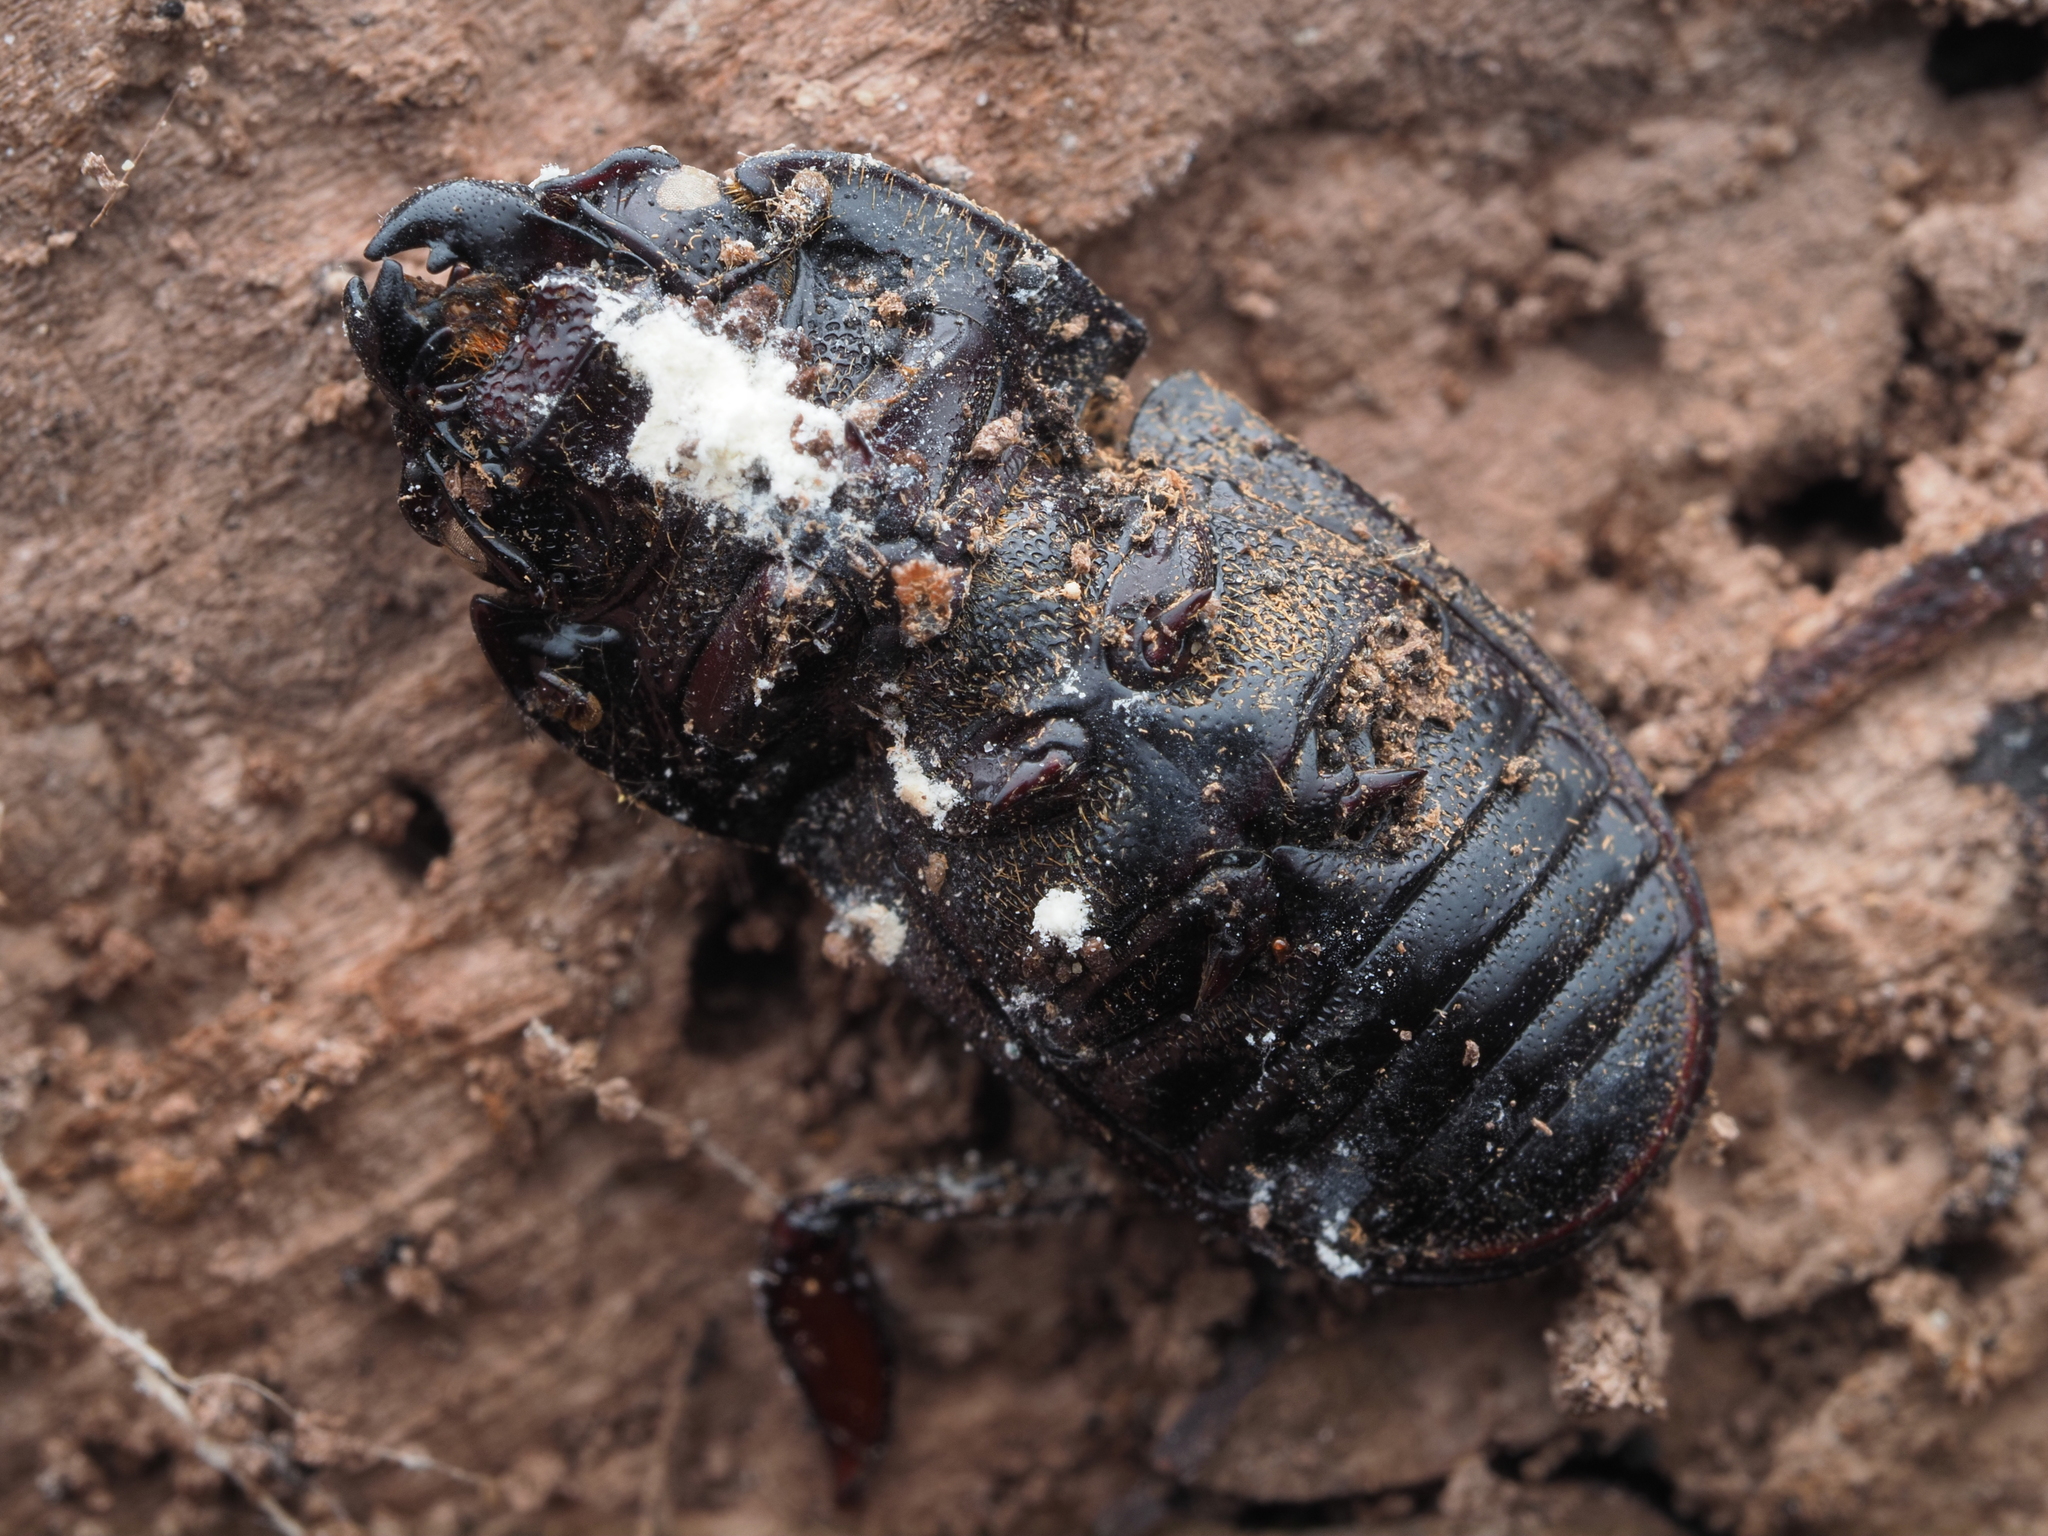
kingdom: Animalia
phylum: Arthropoda
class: Insecta
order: Coleoptera
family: Lucanidae
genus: Paralissotes
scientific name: Paralissotes reticulatus
